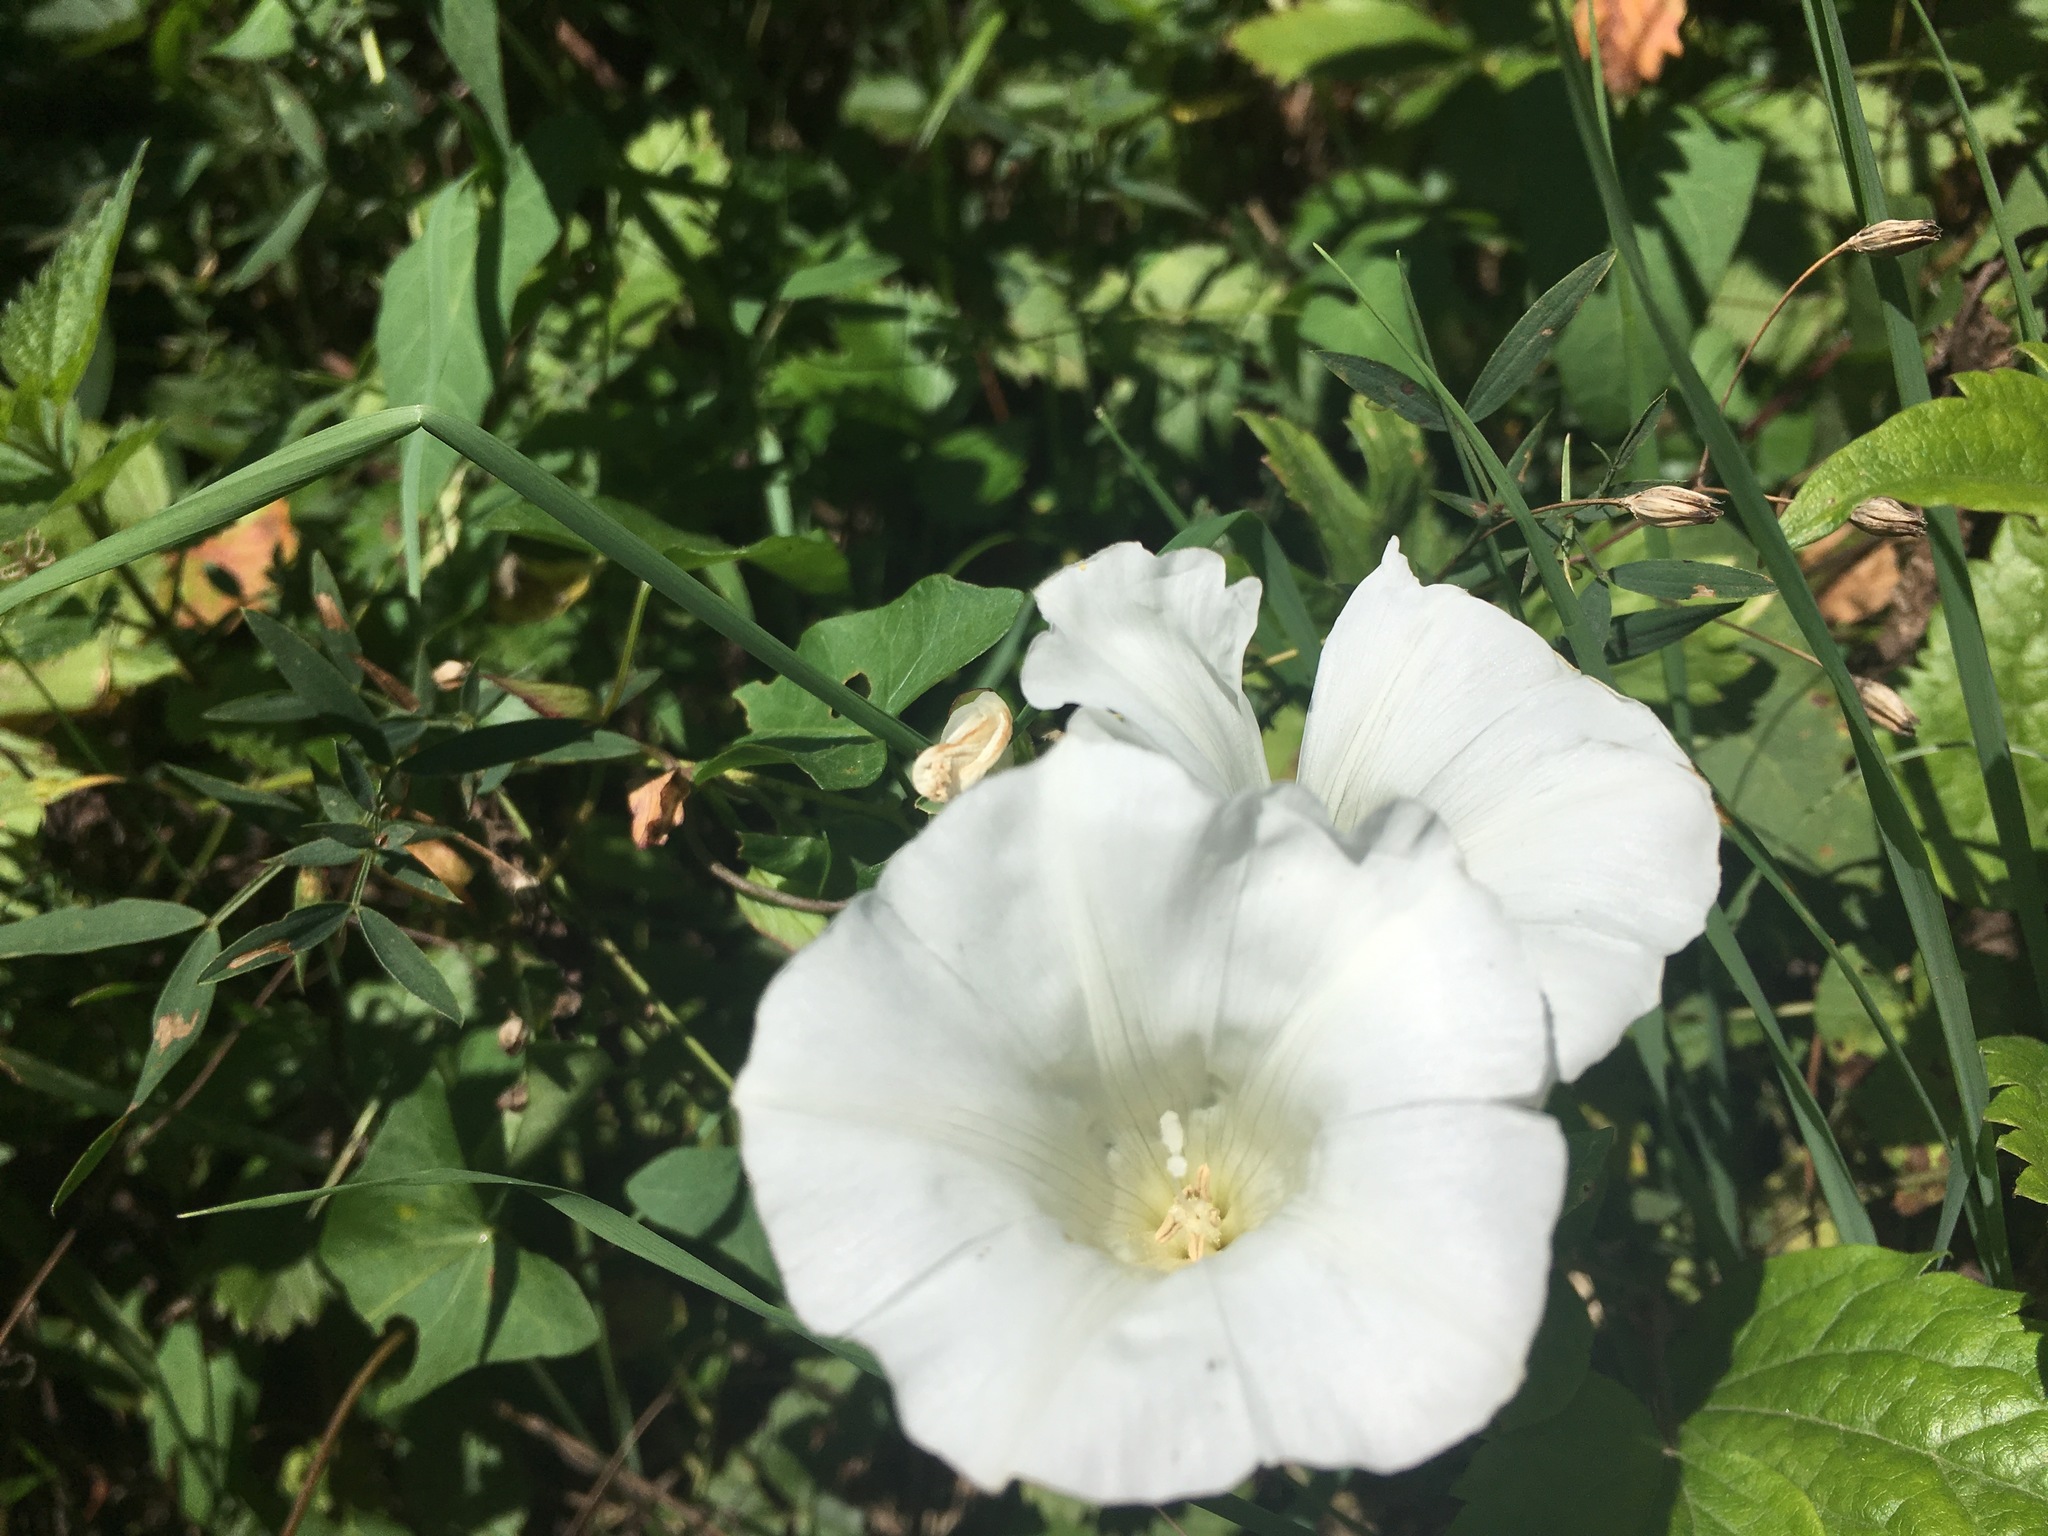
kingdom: Plantae
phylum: Tracheophyta
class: Magnoliopsida
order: Solanales
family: Convolvulaceae
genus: Calystegia
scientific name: Calystegia
